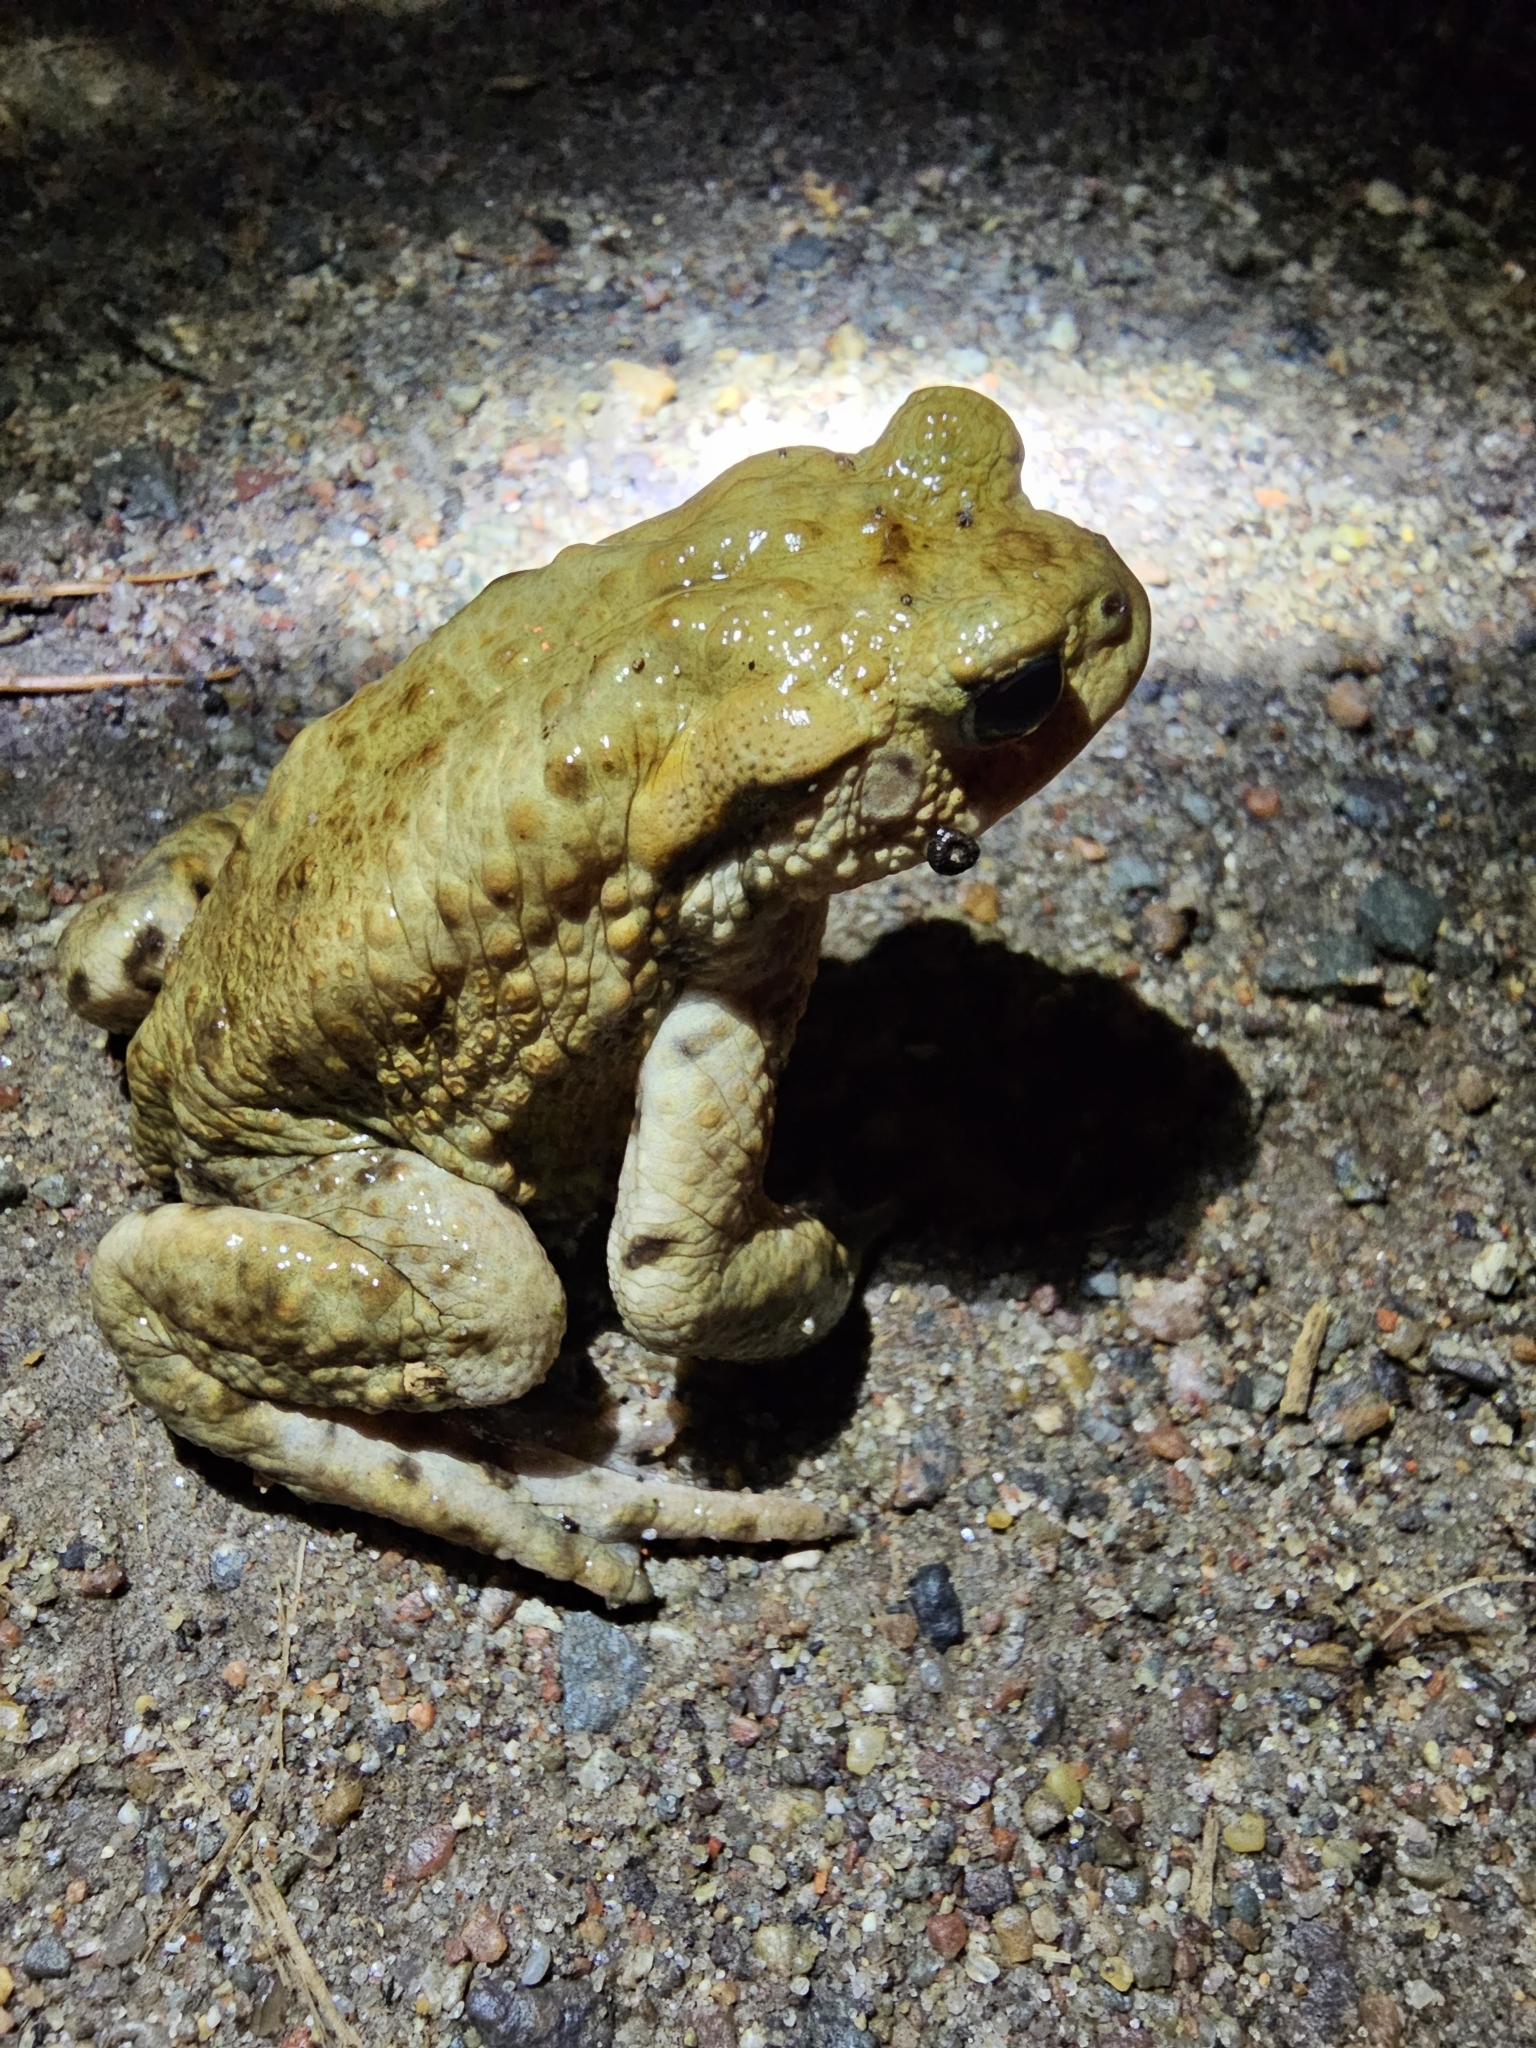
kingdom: Animalia
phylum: Chordata
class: Amphibia
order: Anura
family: Bufonidae
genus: Bufo
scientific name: Bufo bufo
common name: Common toad
